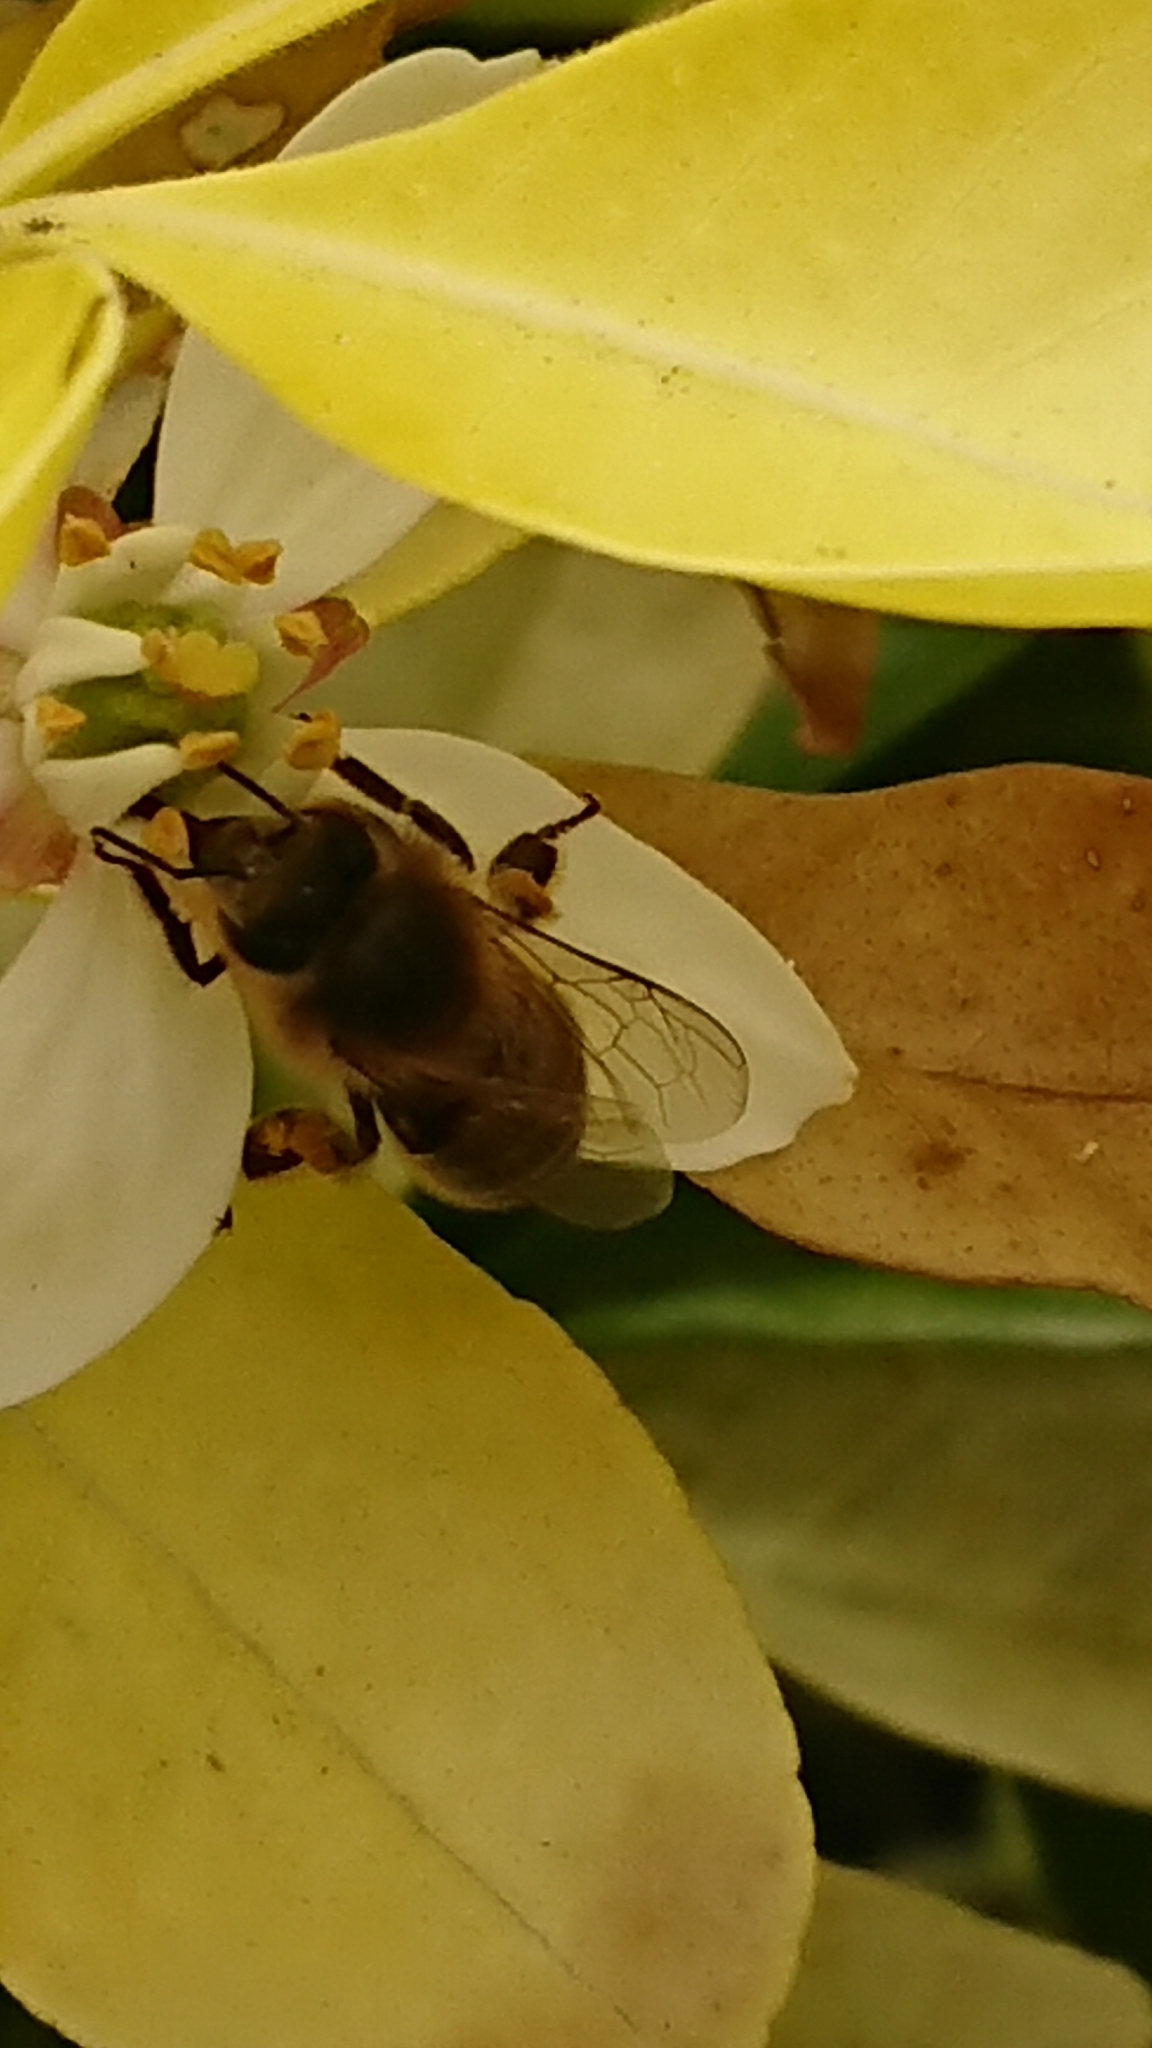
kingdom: Animalia
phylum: Arthropoda
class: Insecta
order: Hymenoptera
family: Apidae
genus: Apis
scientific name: Apis mellifera
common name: Honey bee
